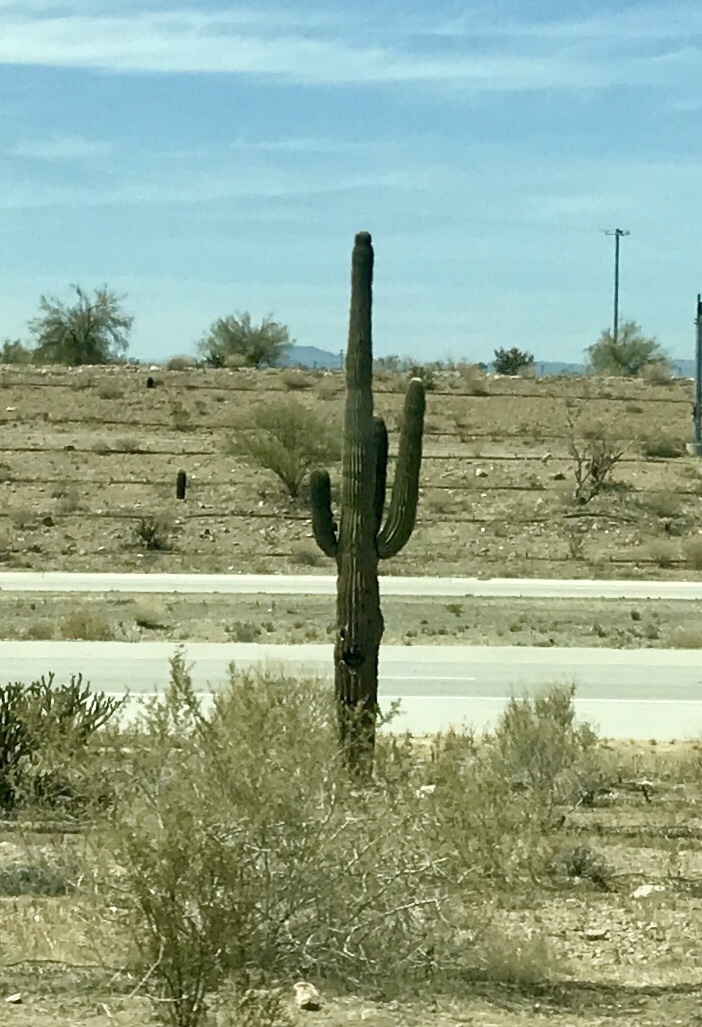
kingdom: Plantae
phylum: Tracheophyta
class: Magnoliopsida
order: Caryophyllales
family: Cactaceae
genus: Carnegiea
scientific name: Carnegiea gigantea
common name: Saguaro
